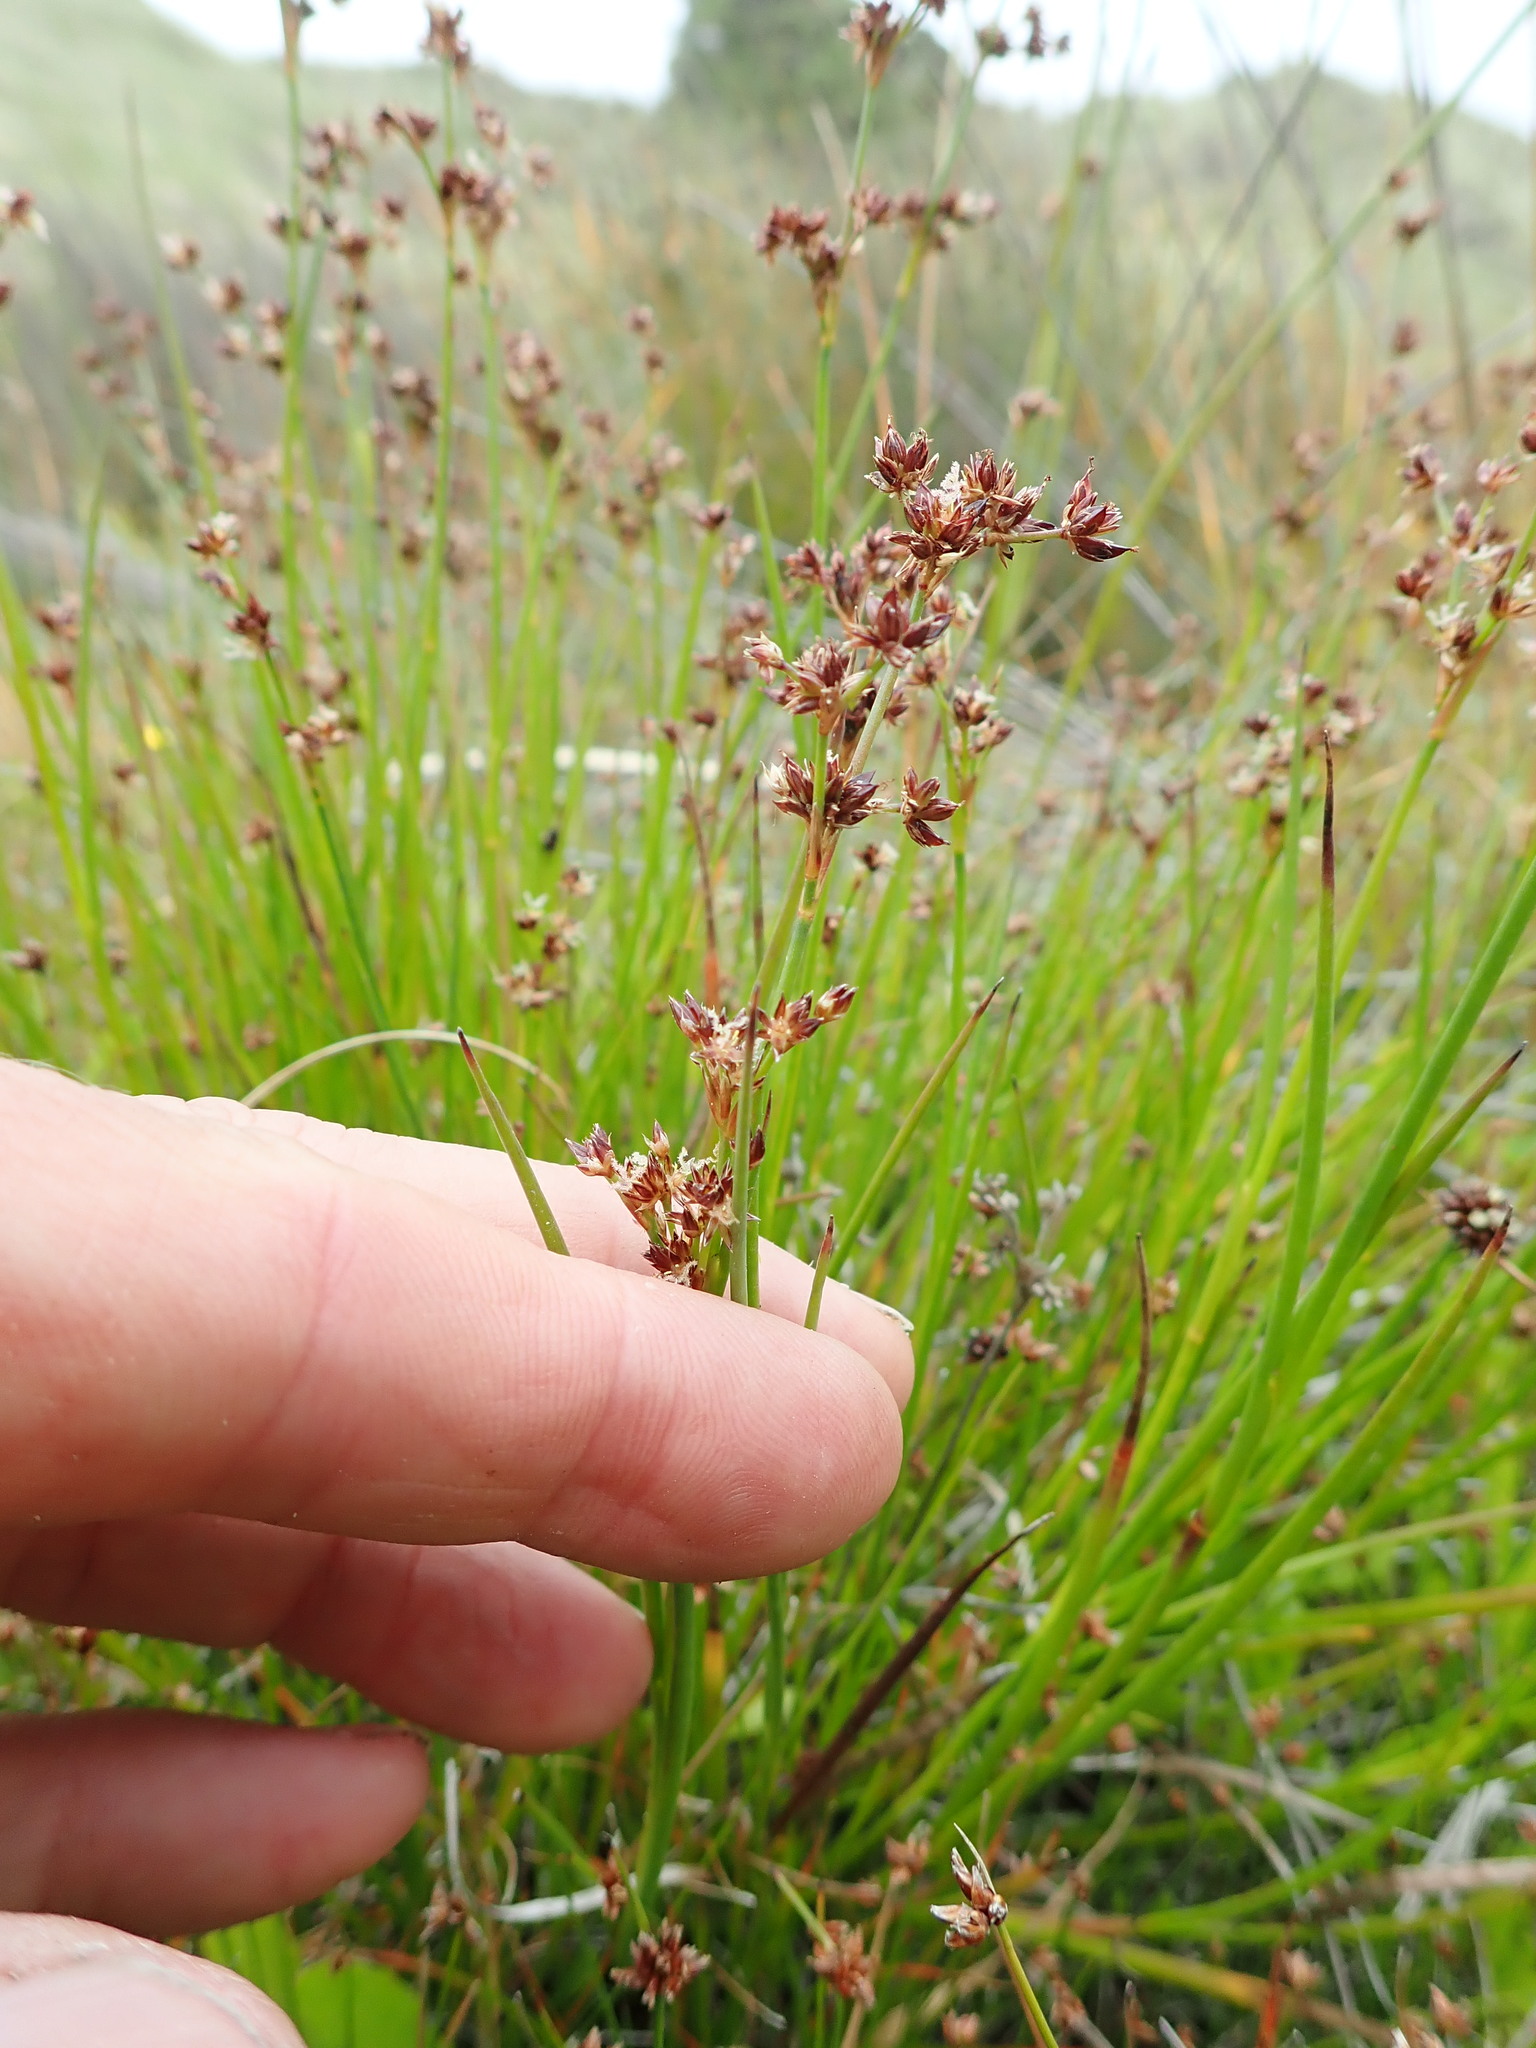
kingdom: Plantae
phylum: Tracheophyta
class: Liliopsida
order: Poales
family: Juncaceae
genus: Juncus
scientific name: Juncus articulatus
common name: Jointed rush
